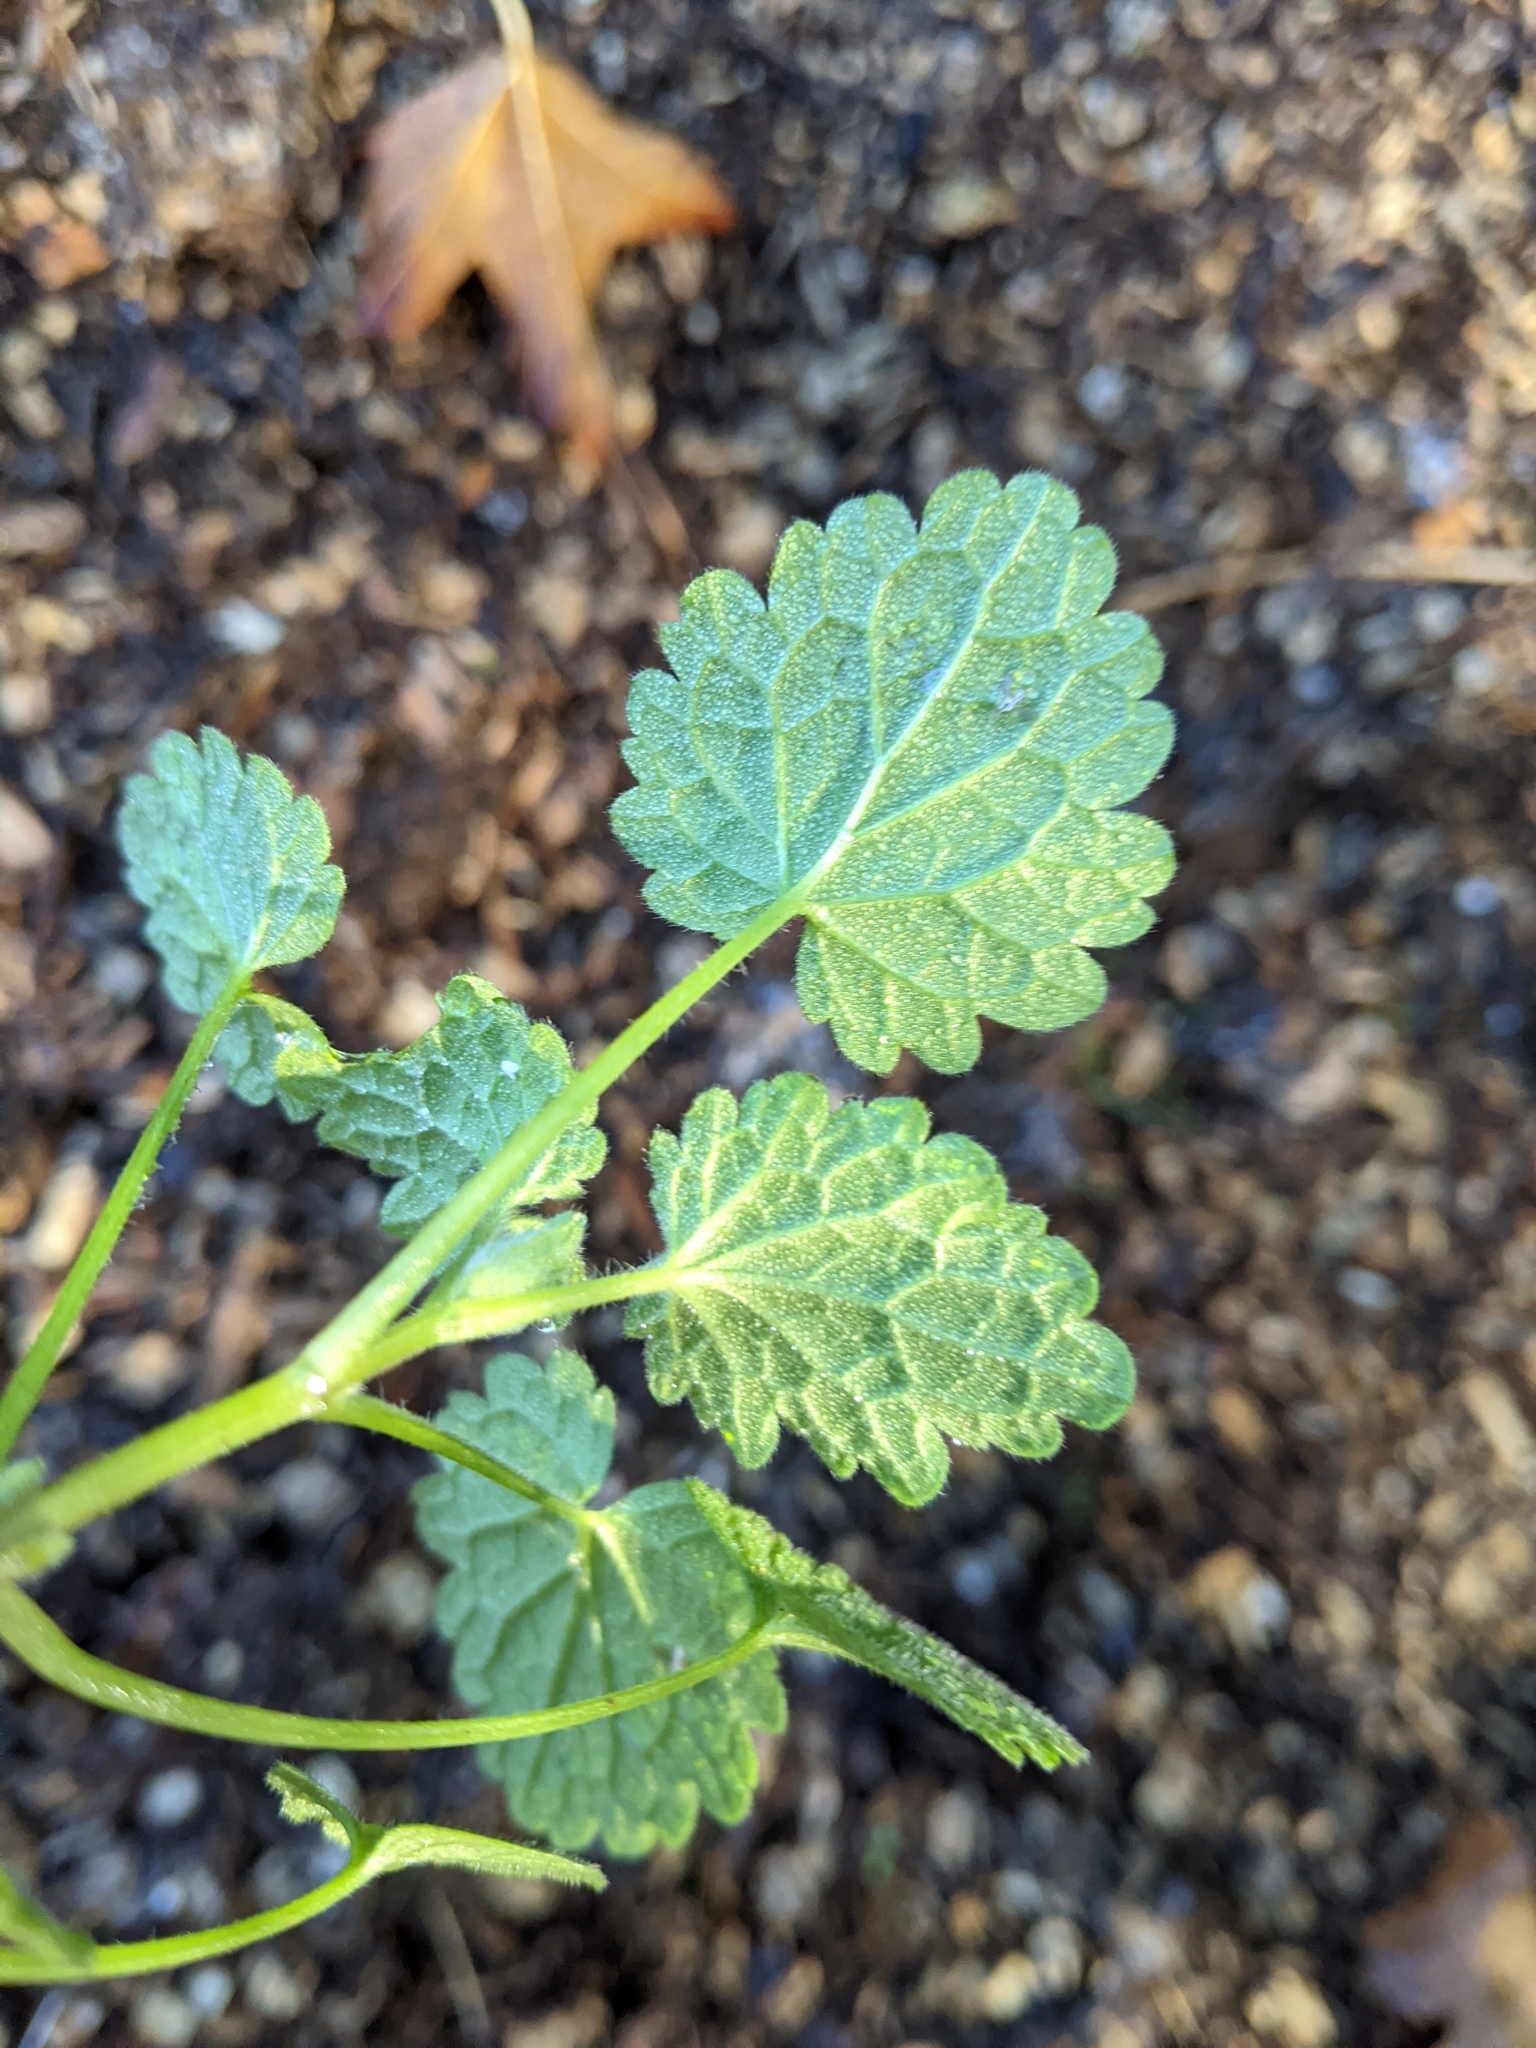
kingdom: Plantae
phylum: Tracheophyta
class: Magnoliopsida
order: Lamiales
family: Lamiaceae
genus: Lamium
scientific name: Lamium purpureum
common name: Red dead-nettle
